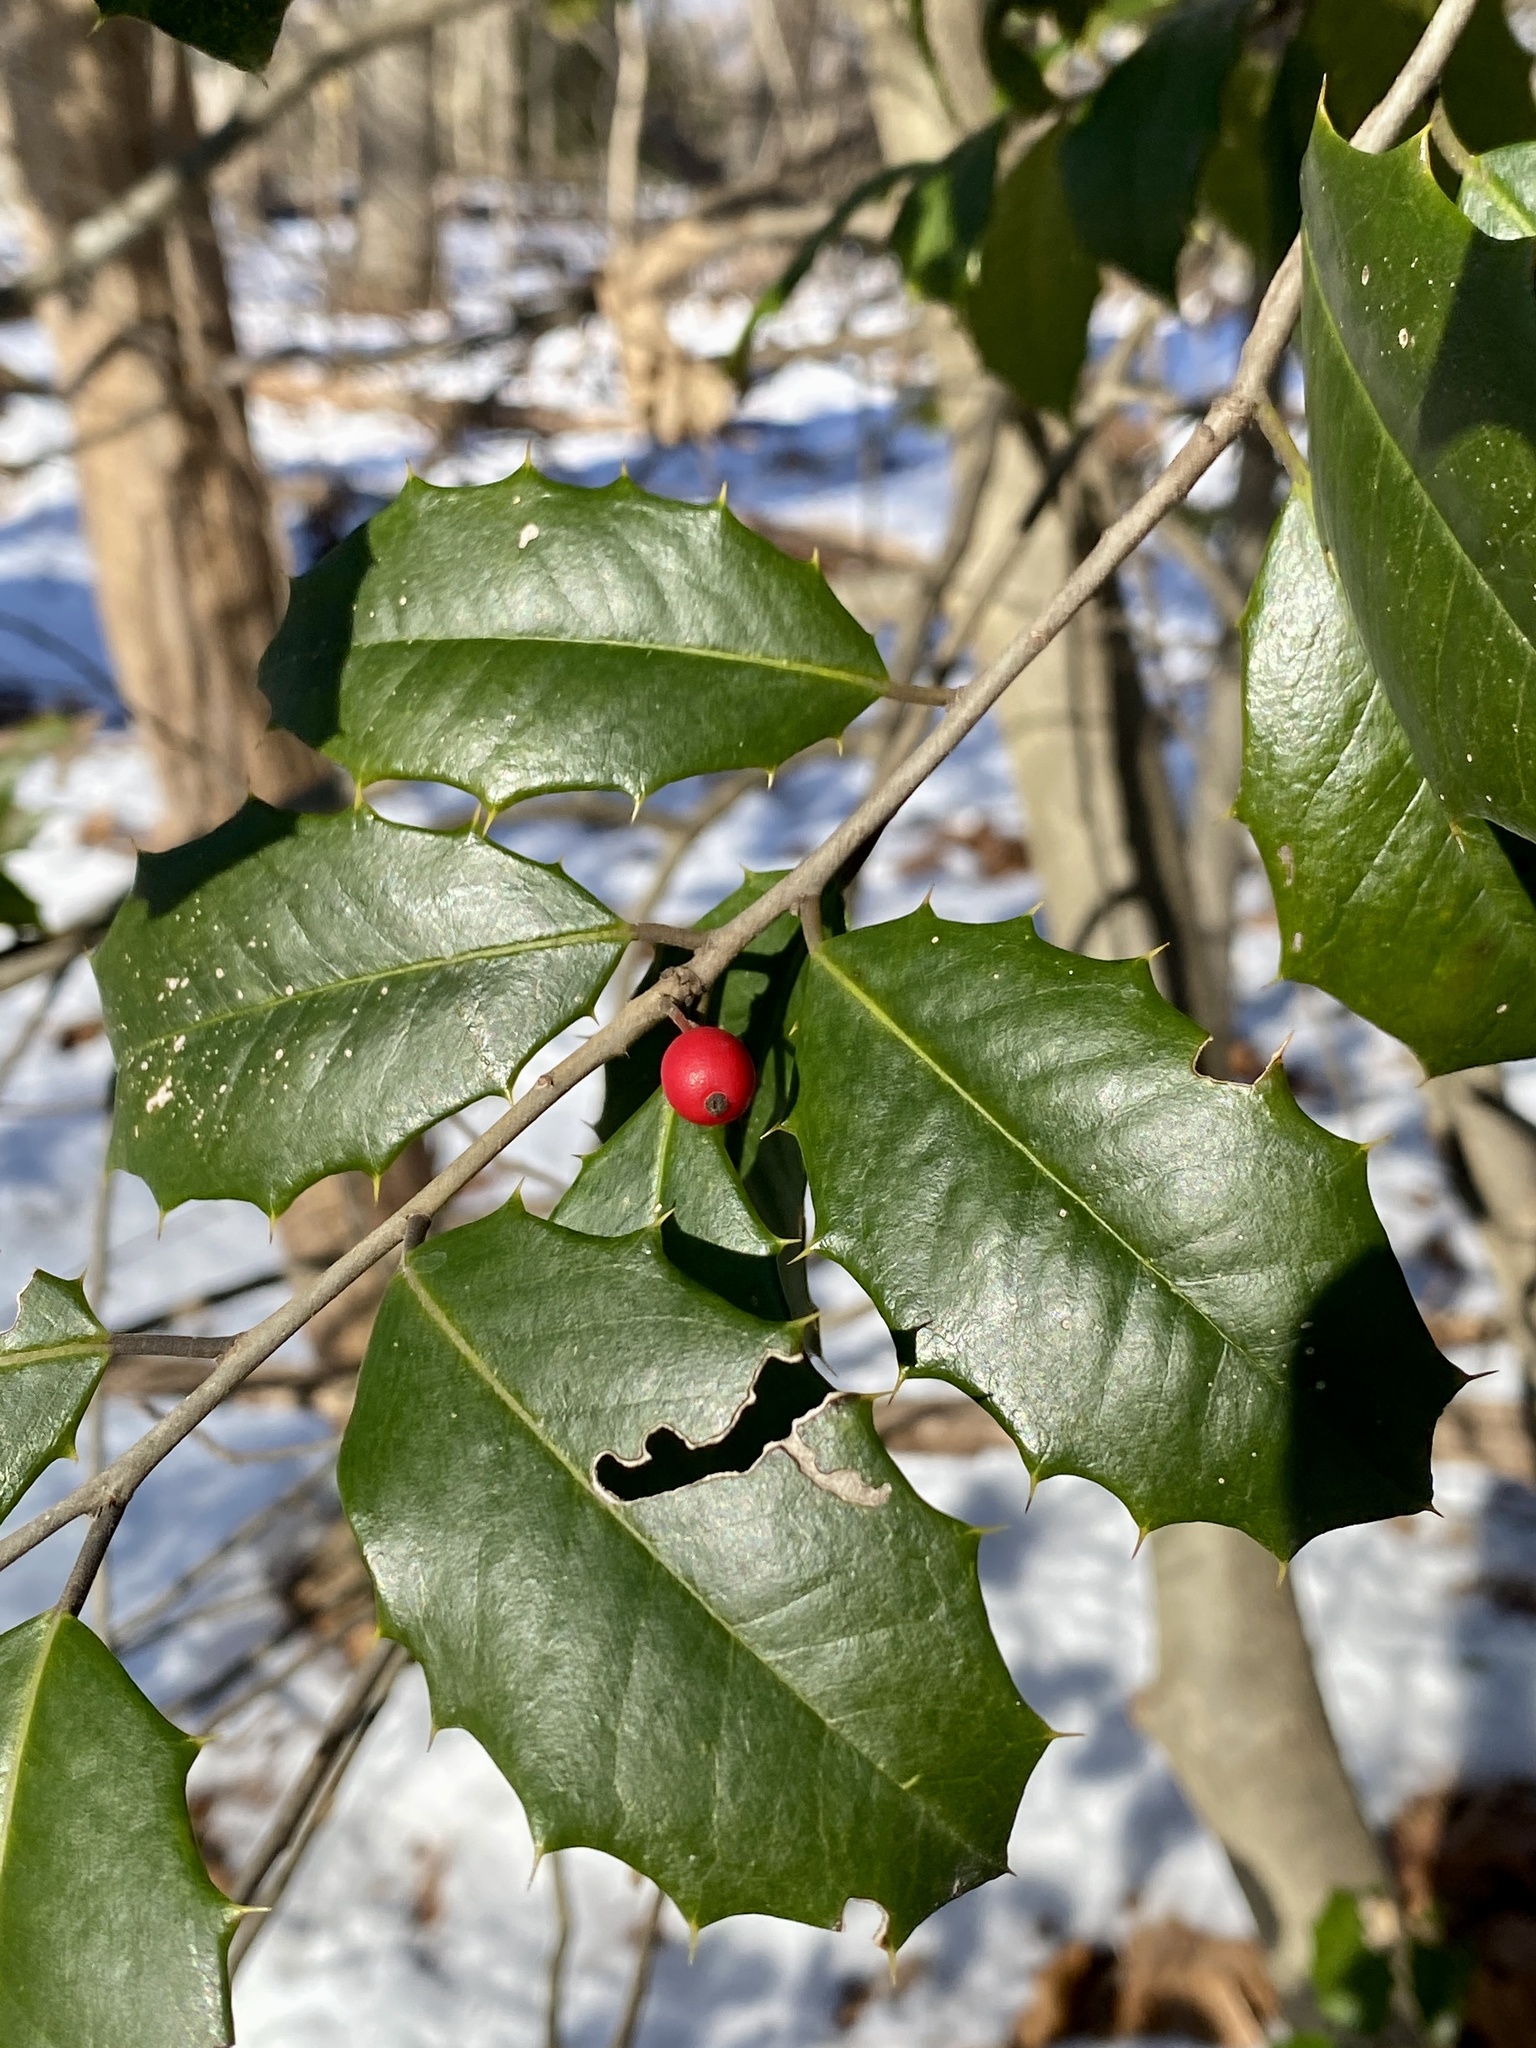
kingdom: Plantae
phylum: Tracheophyta
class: Magnoliopsida
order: Aquifoliales
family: Aquifoliaceae
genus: Ilex
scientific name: Ilex opaca
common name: American holly
